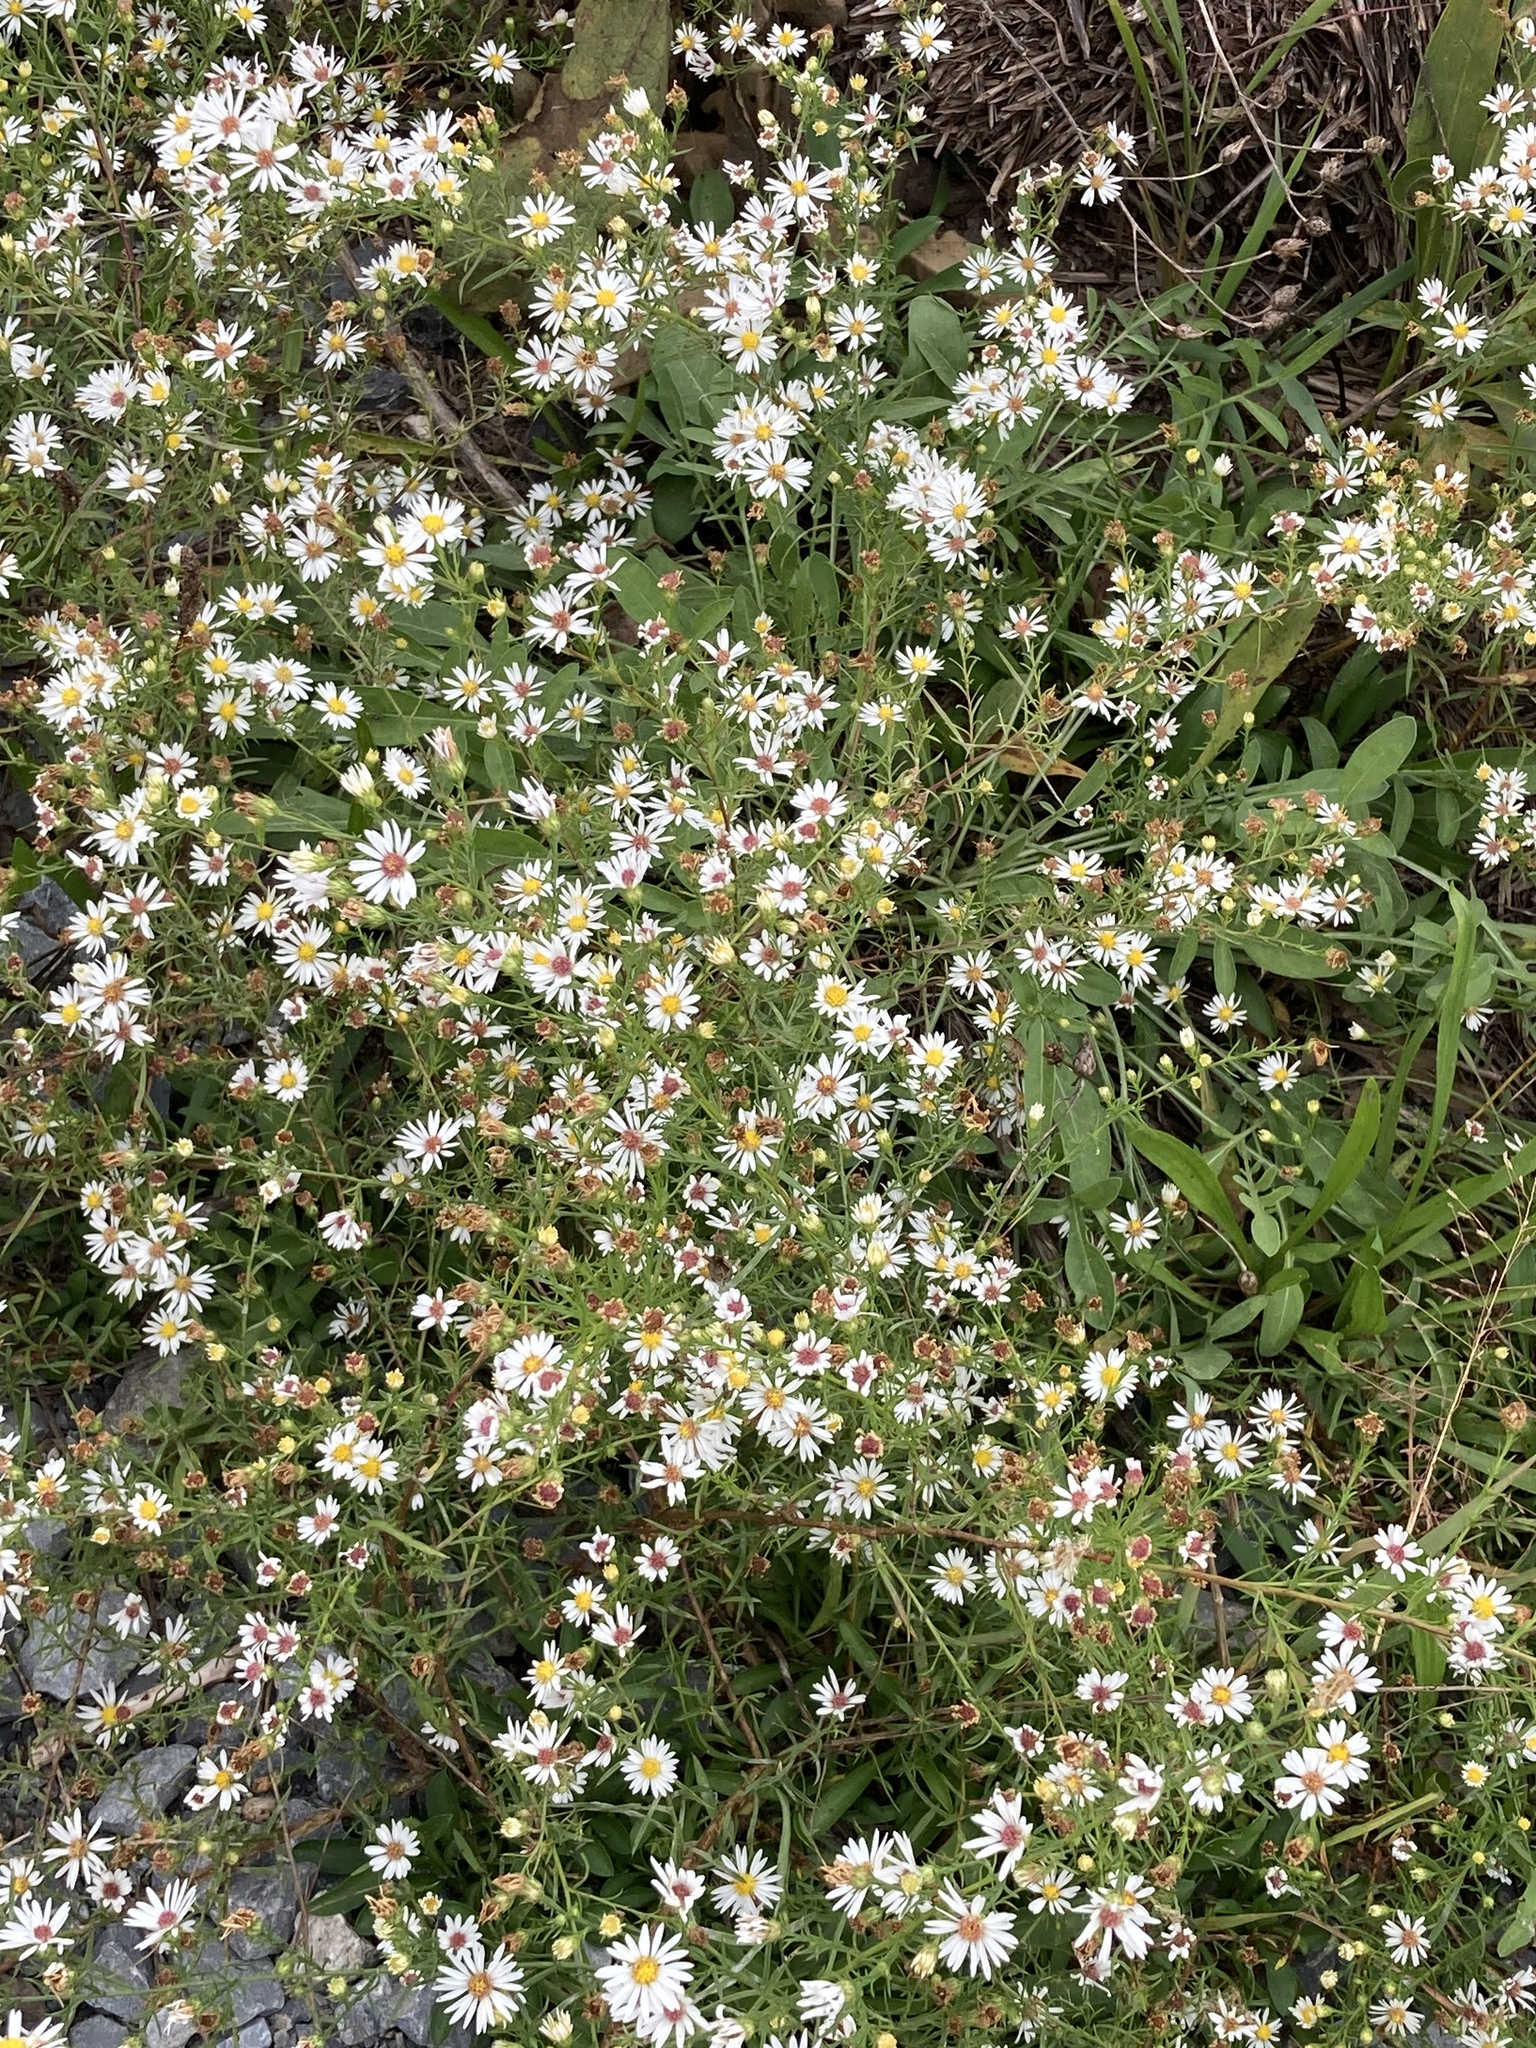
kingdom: Plantae
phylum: Tracheophyta
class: Magnoliopsida
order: Asterales
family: Asteraceae
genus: Symphyotrichum
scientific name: Symphyotrichum pilosum
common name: Awl aster
